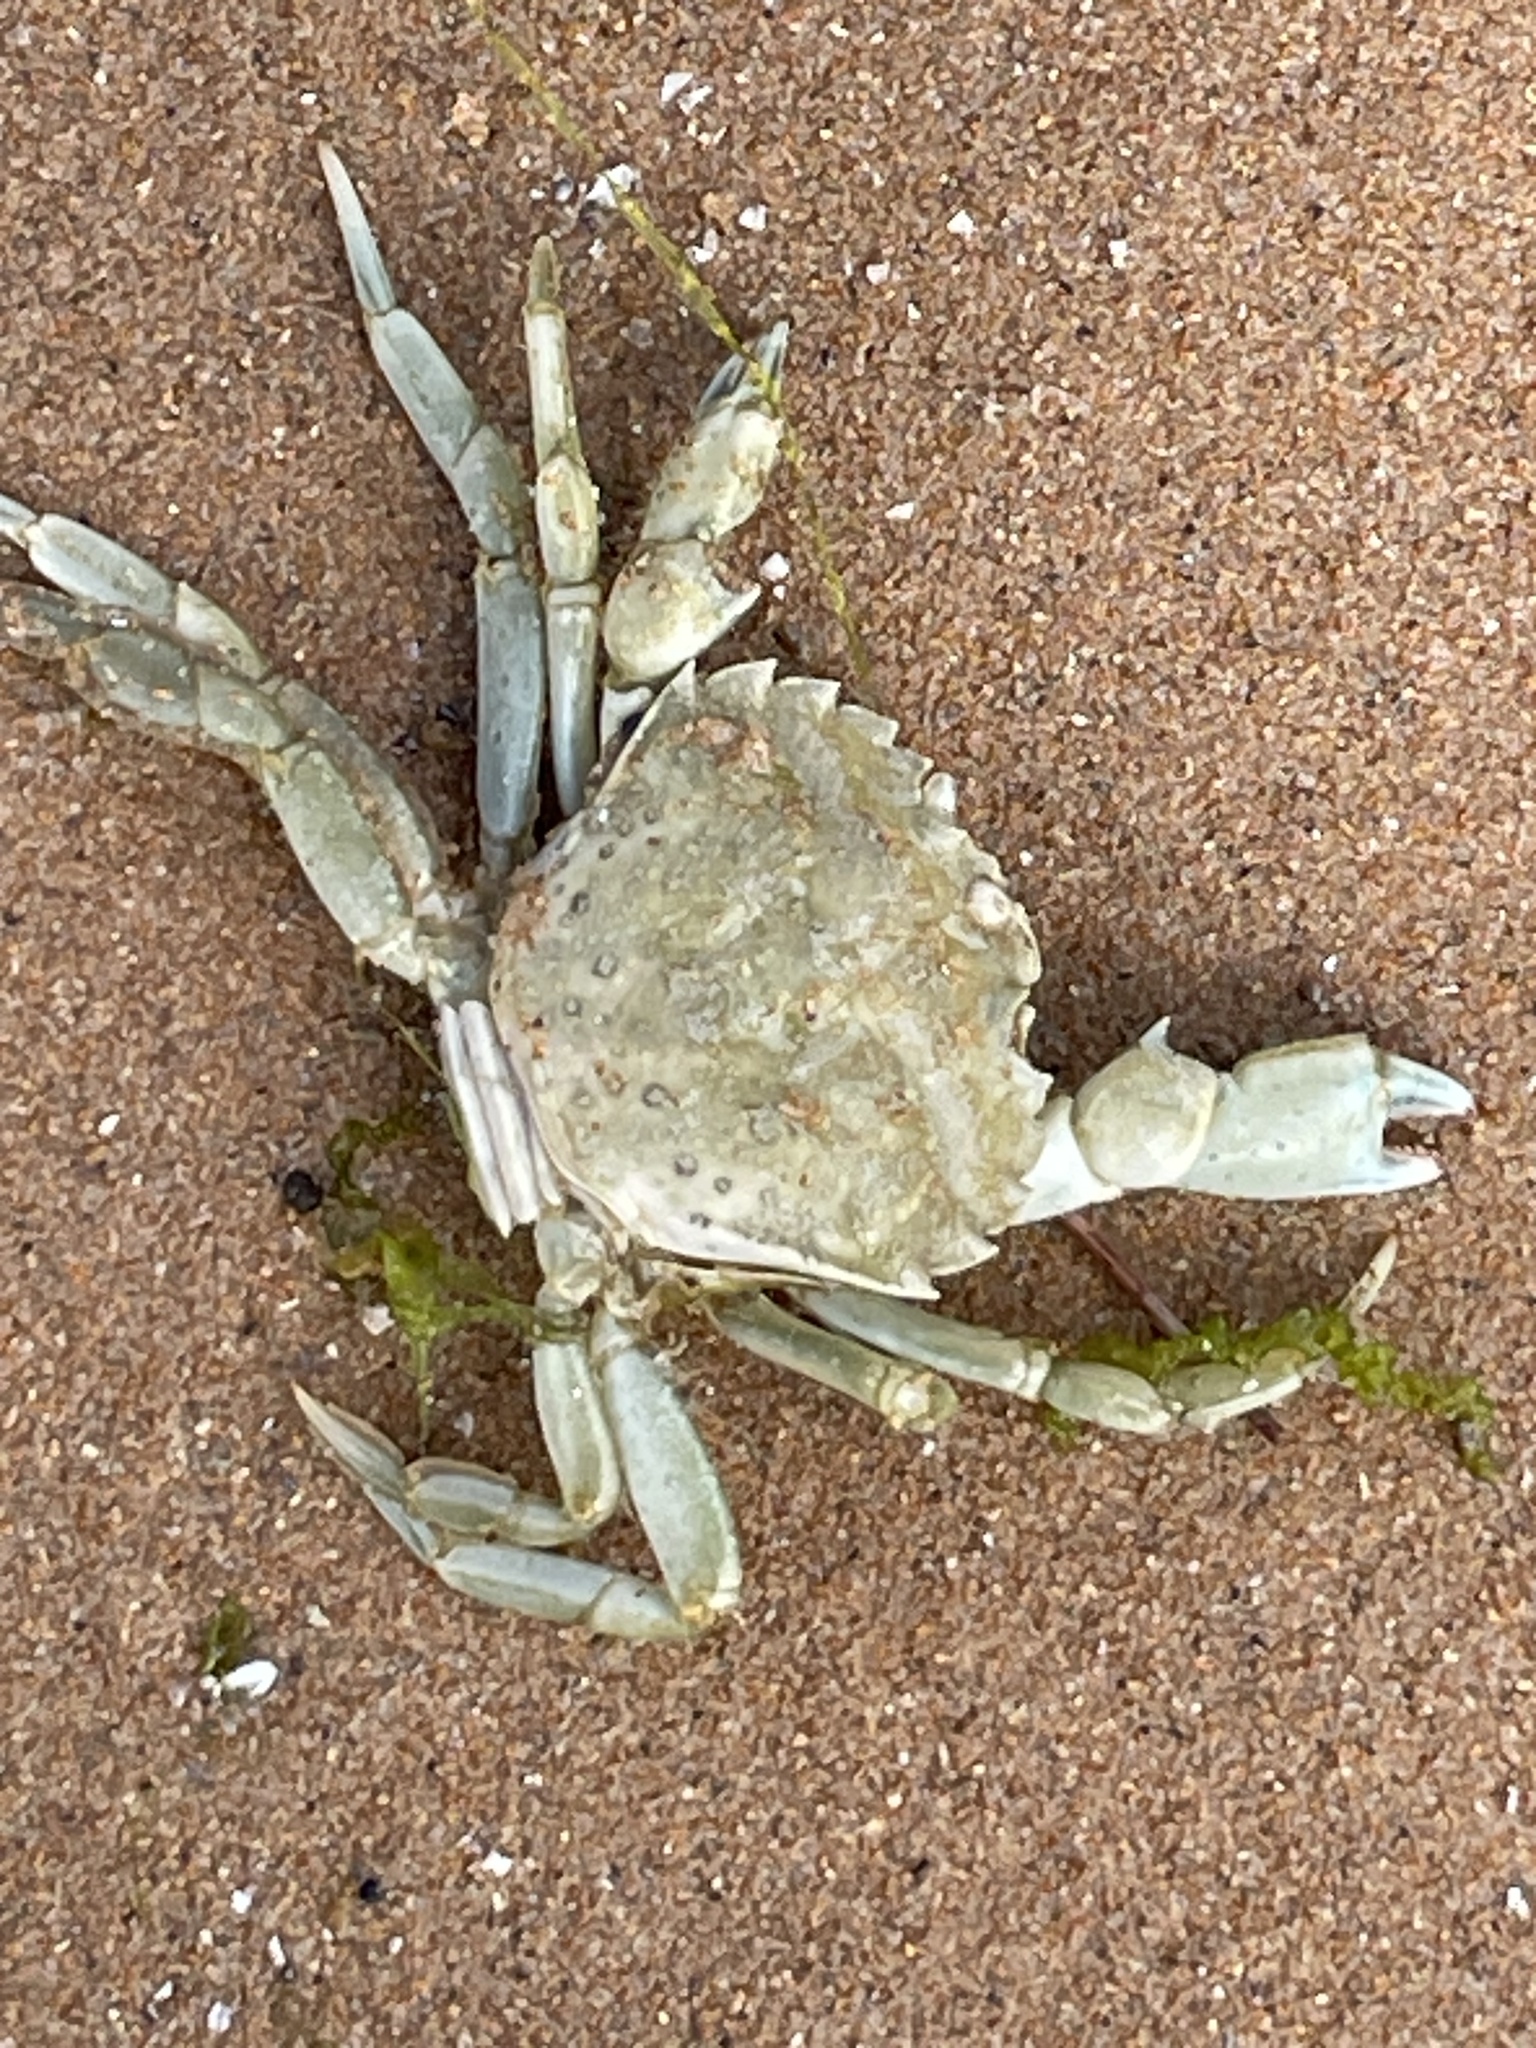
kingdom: Animalia
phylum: Arthropoda
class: Malacostraca
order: Decapoda
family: Carcinidae
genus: Carcinus
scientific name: Carcinus maenas
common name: European green crab
